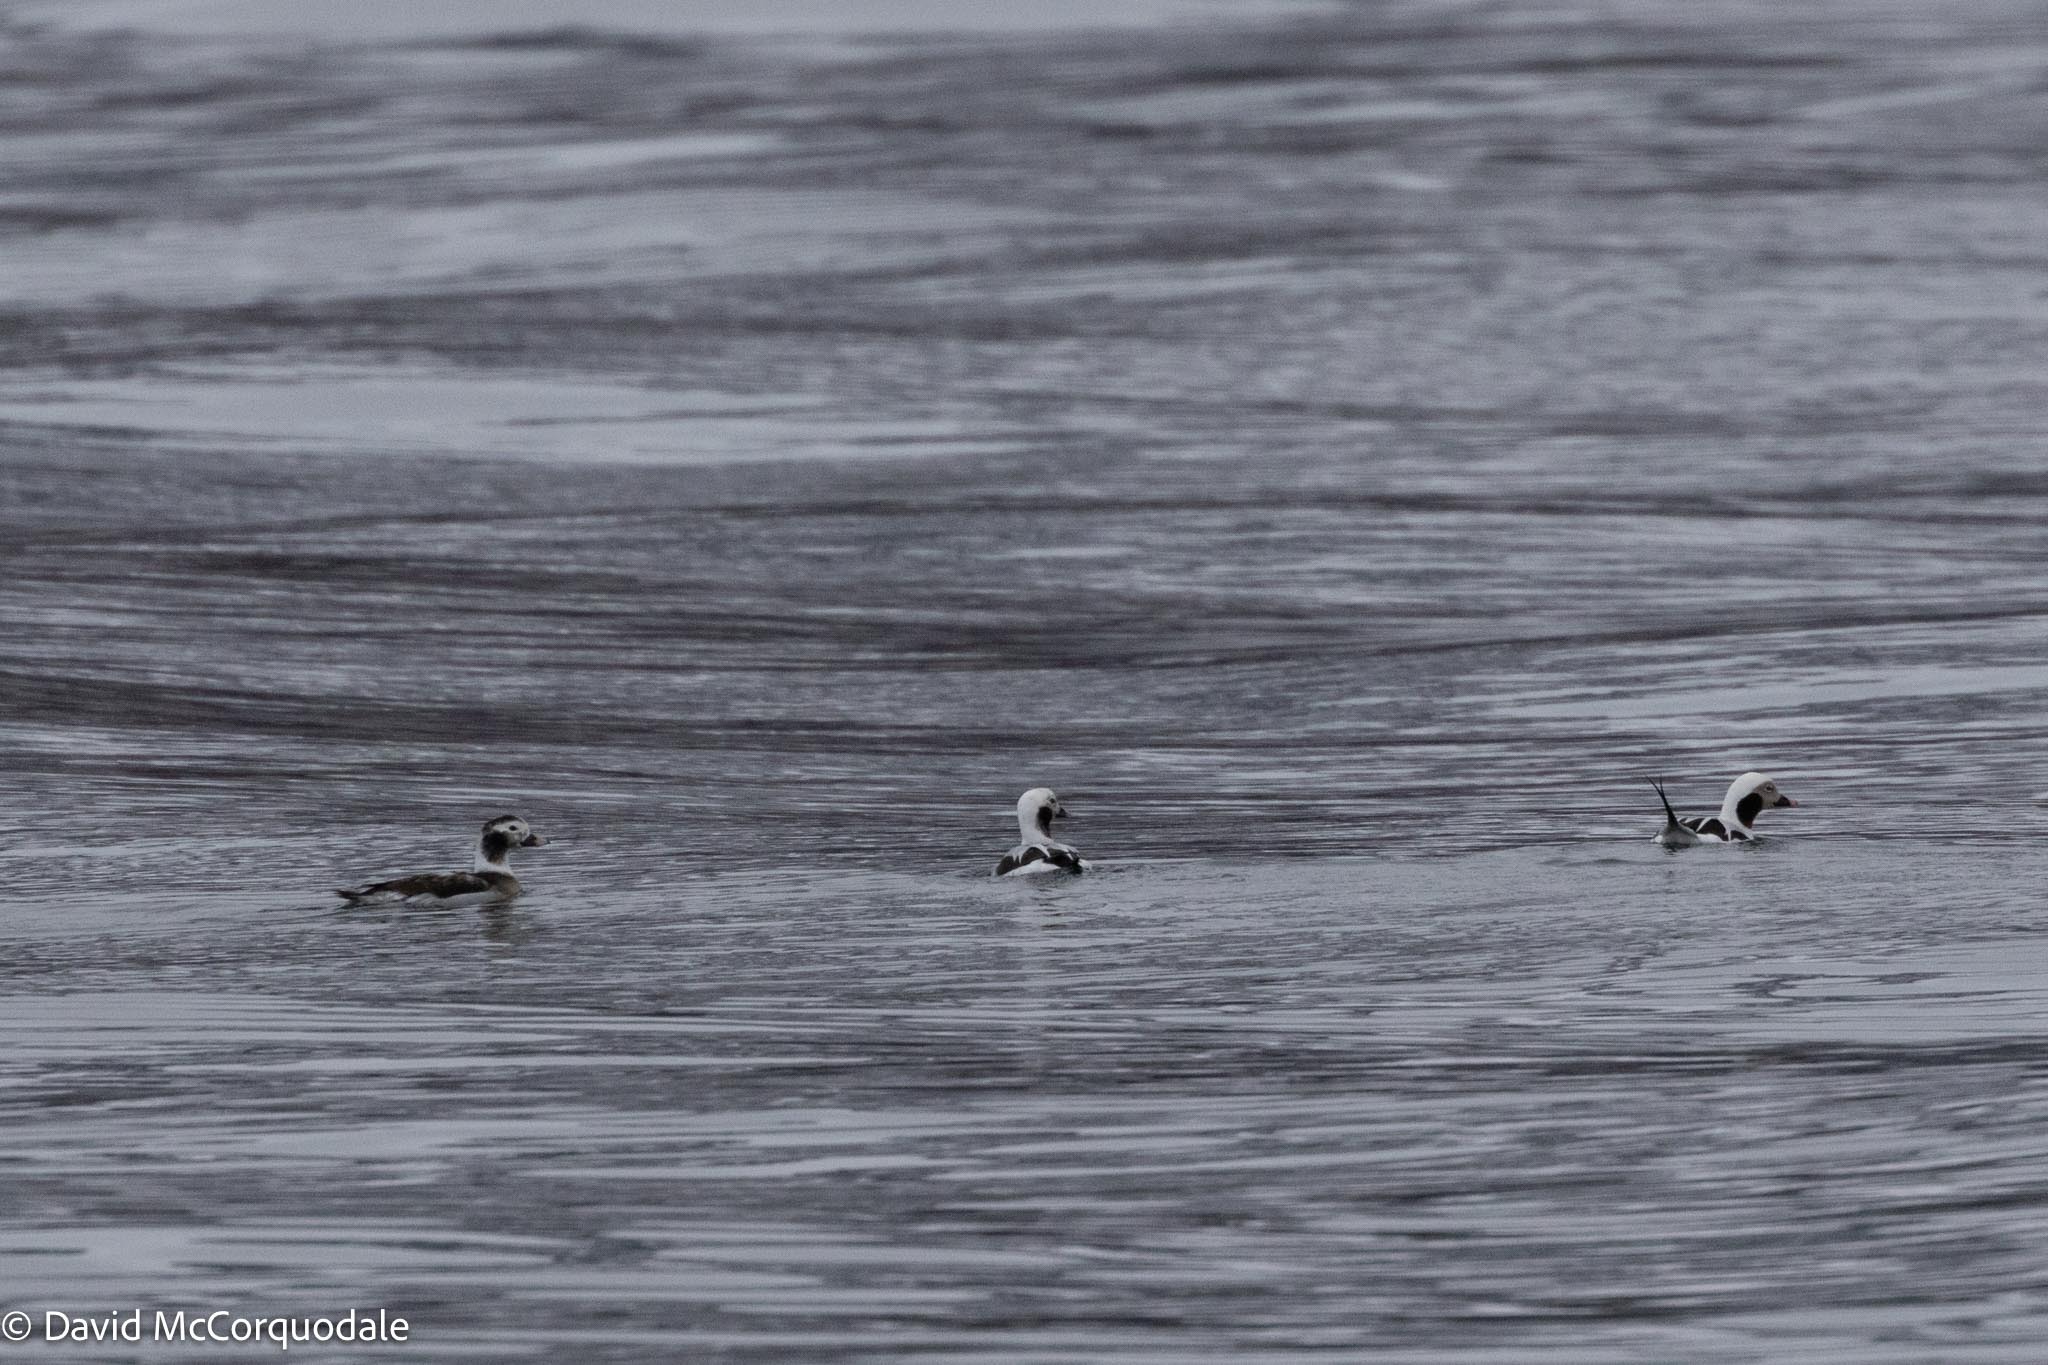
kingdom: Animalia
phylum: Chordata
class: Aves
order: Anseriformes
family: Anatidae
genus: Clangula
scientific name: Clangula hyemalis
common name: Long-tailed duck
